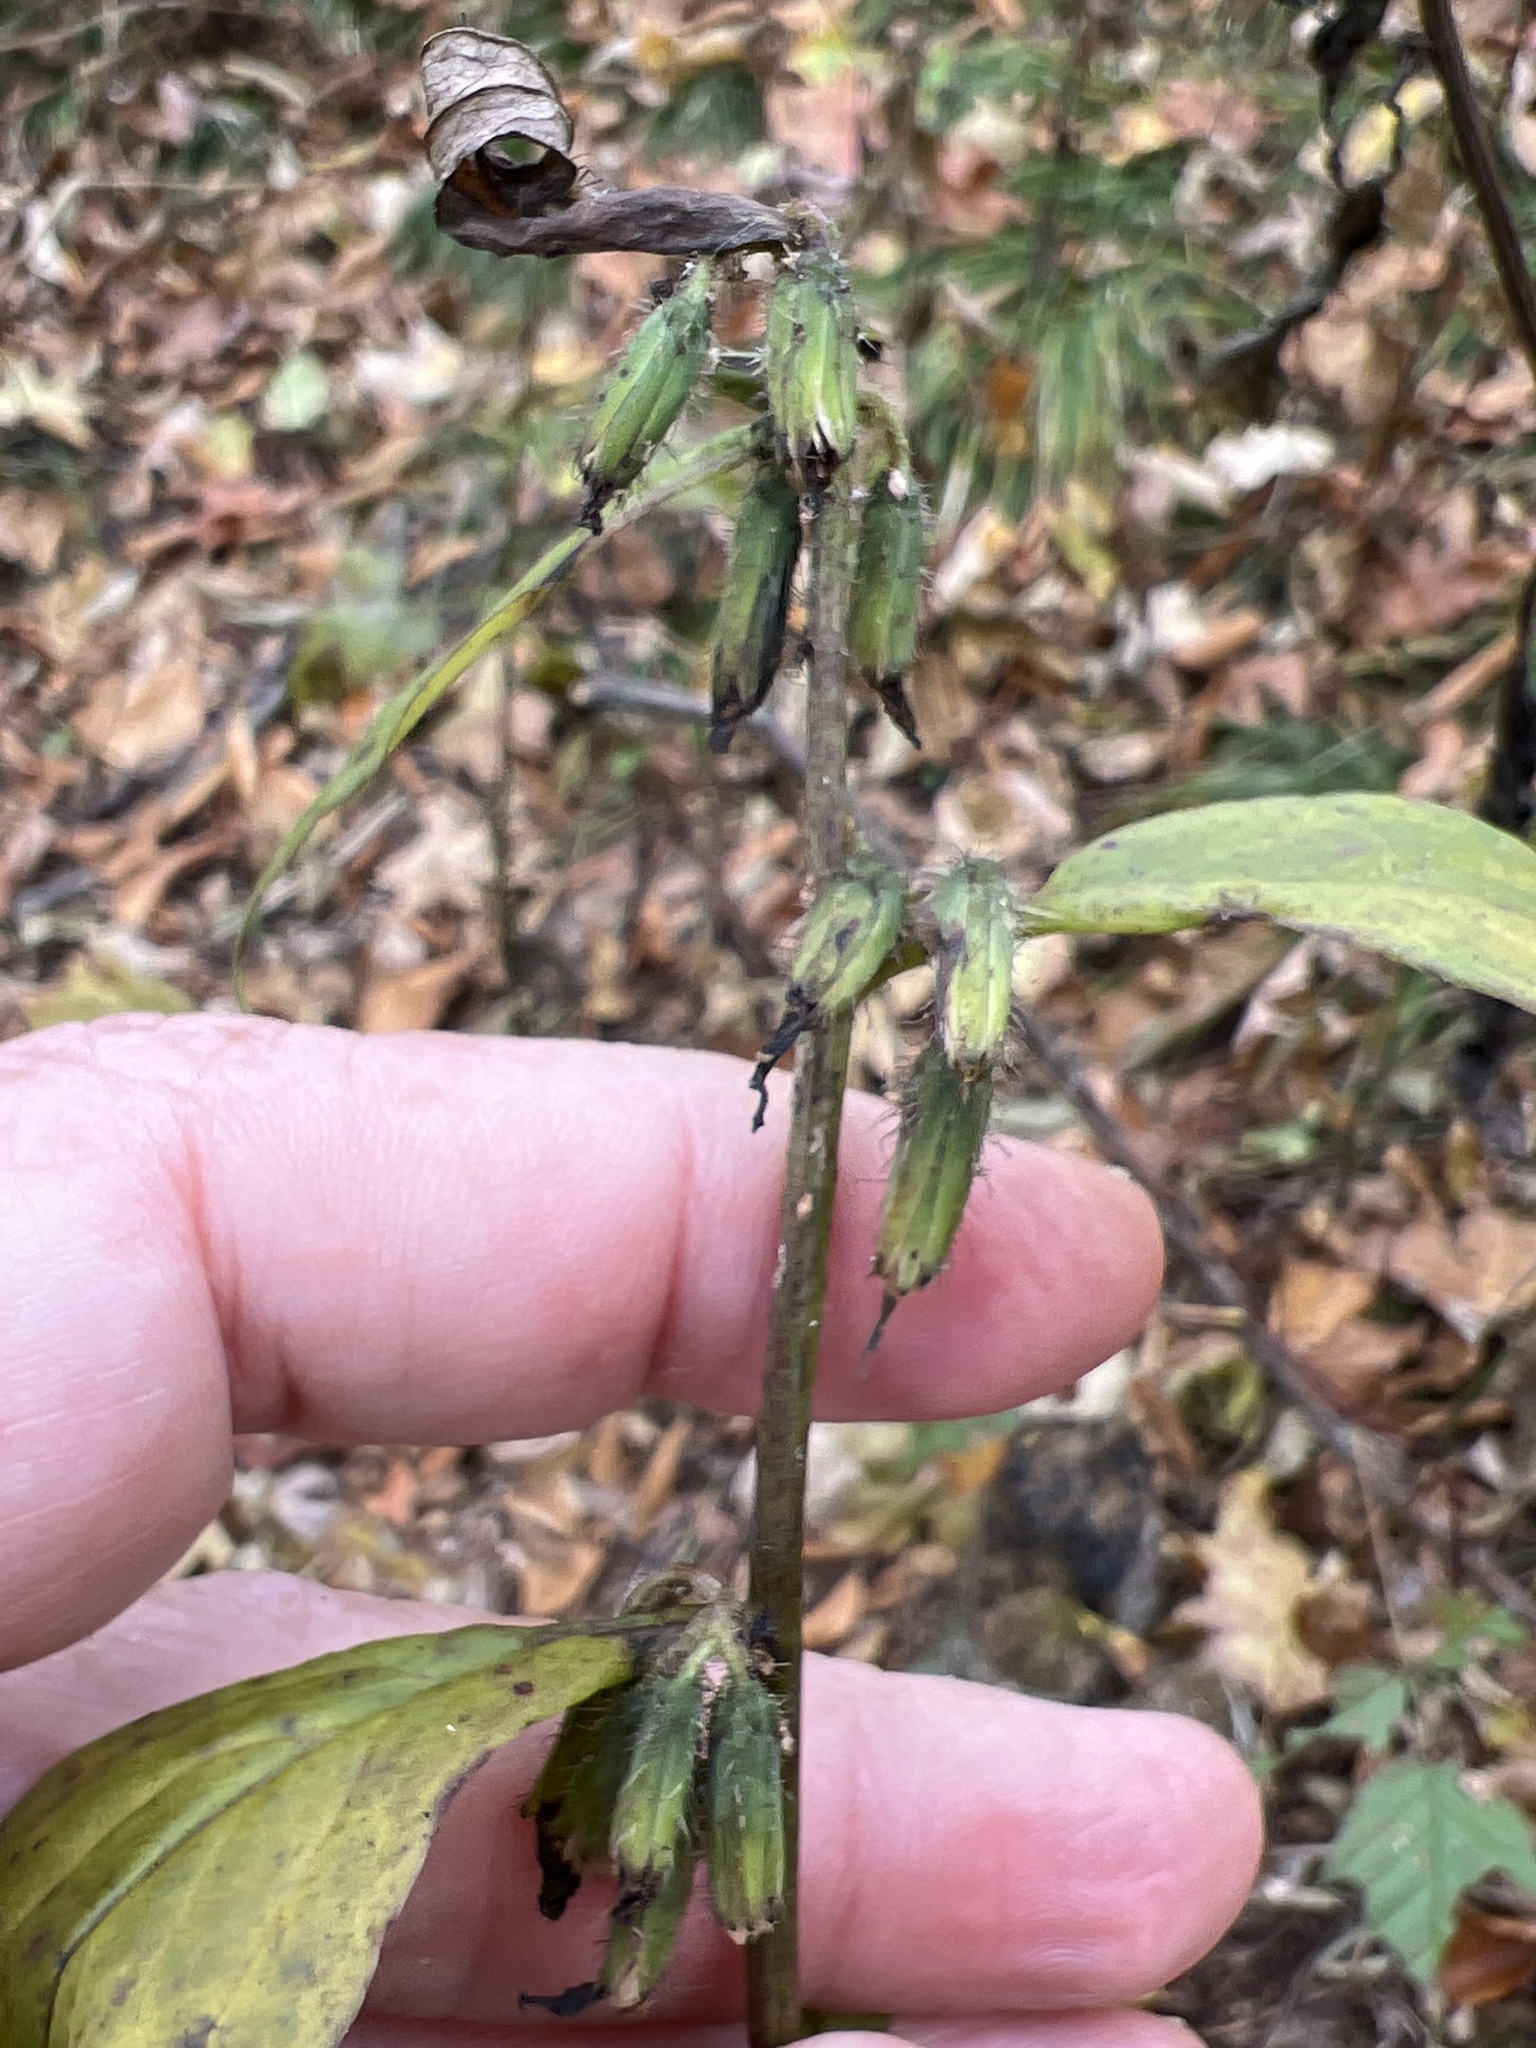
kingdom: Plantae
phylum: Tracheophyta
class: Magnoliopsida
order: Asterales
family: Asteraceae
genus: Nabalus
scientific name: Nabalus roanensis
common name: Roan mountain rattlesnakeroot
